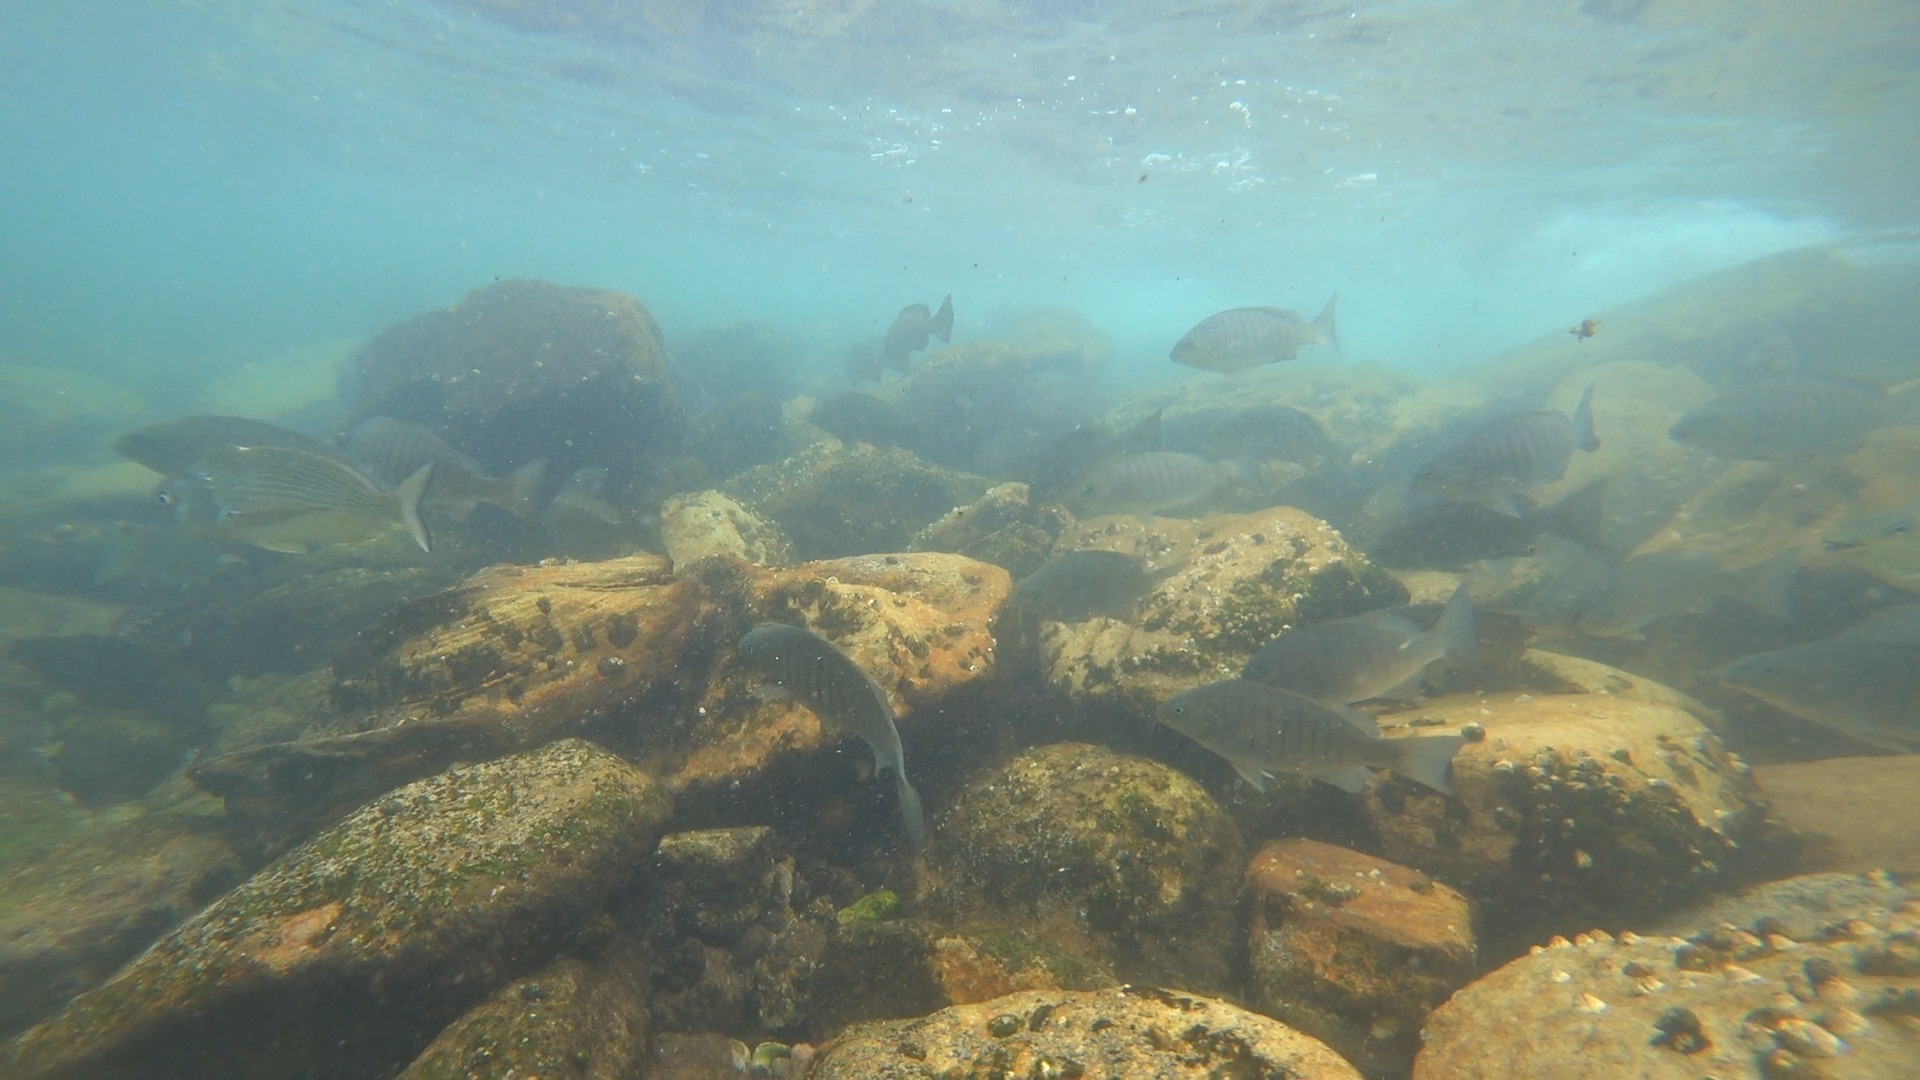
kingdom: Animalia
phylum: Chordata
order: Perciformes
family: Kyphosidae
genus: Girella
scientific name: Girella tricuspidata
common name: Parore
